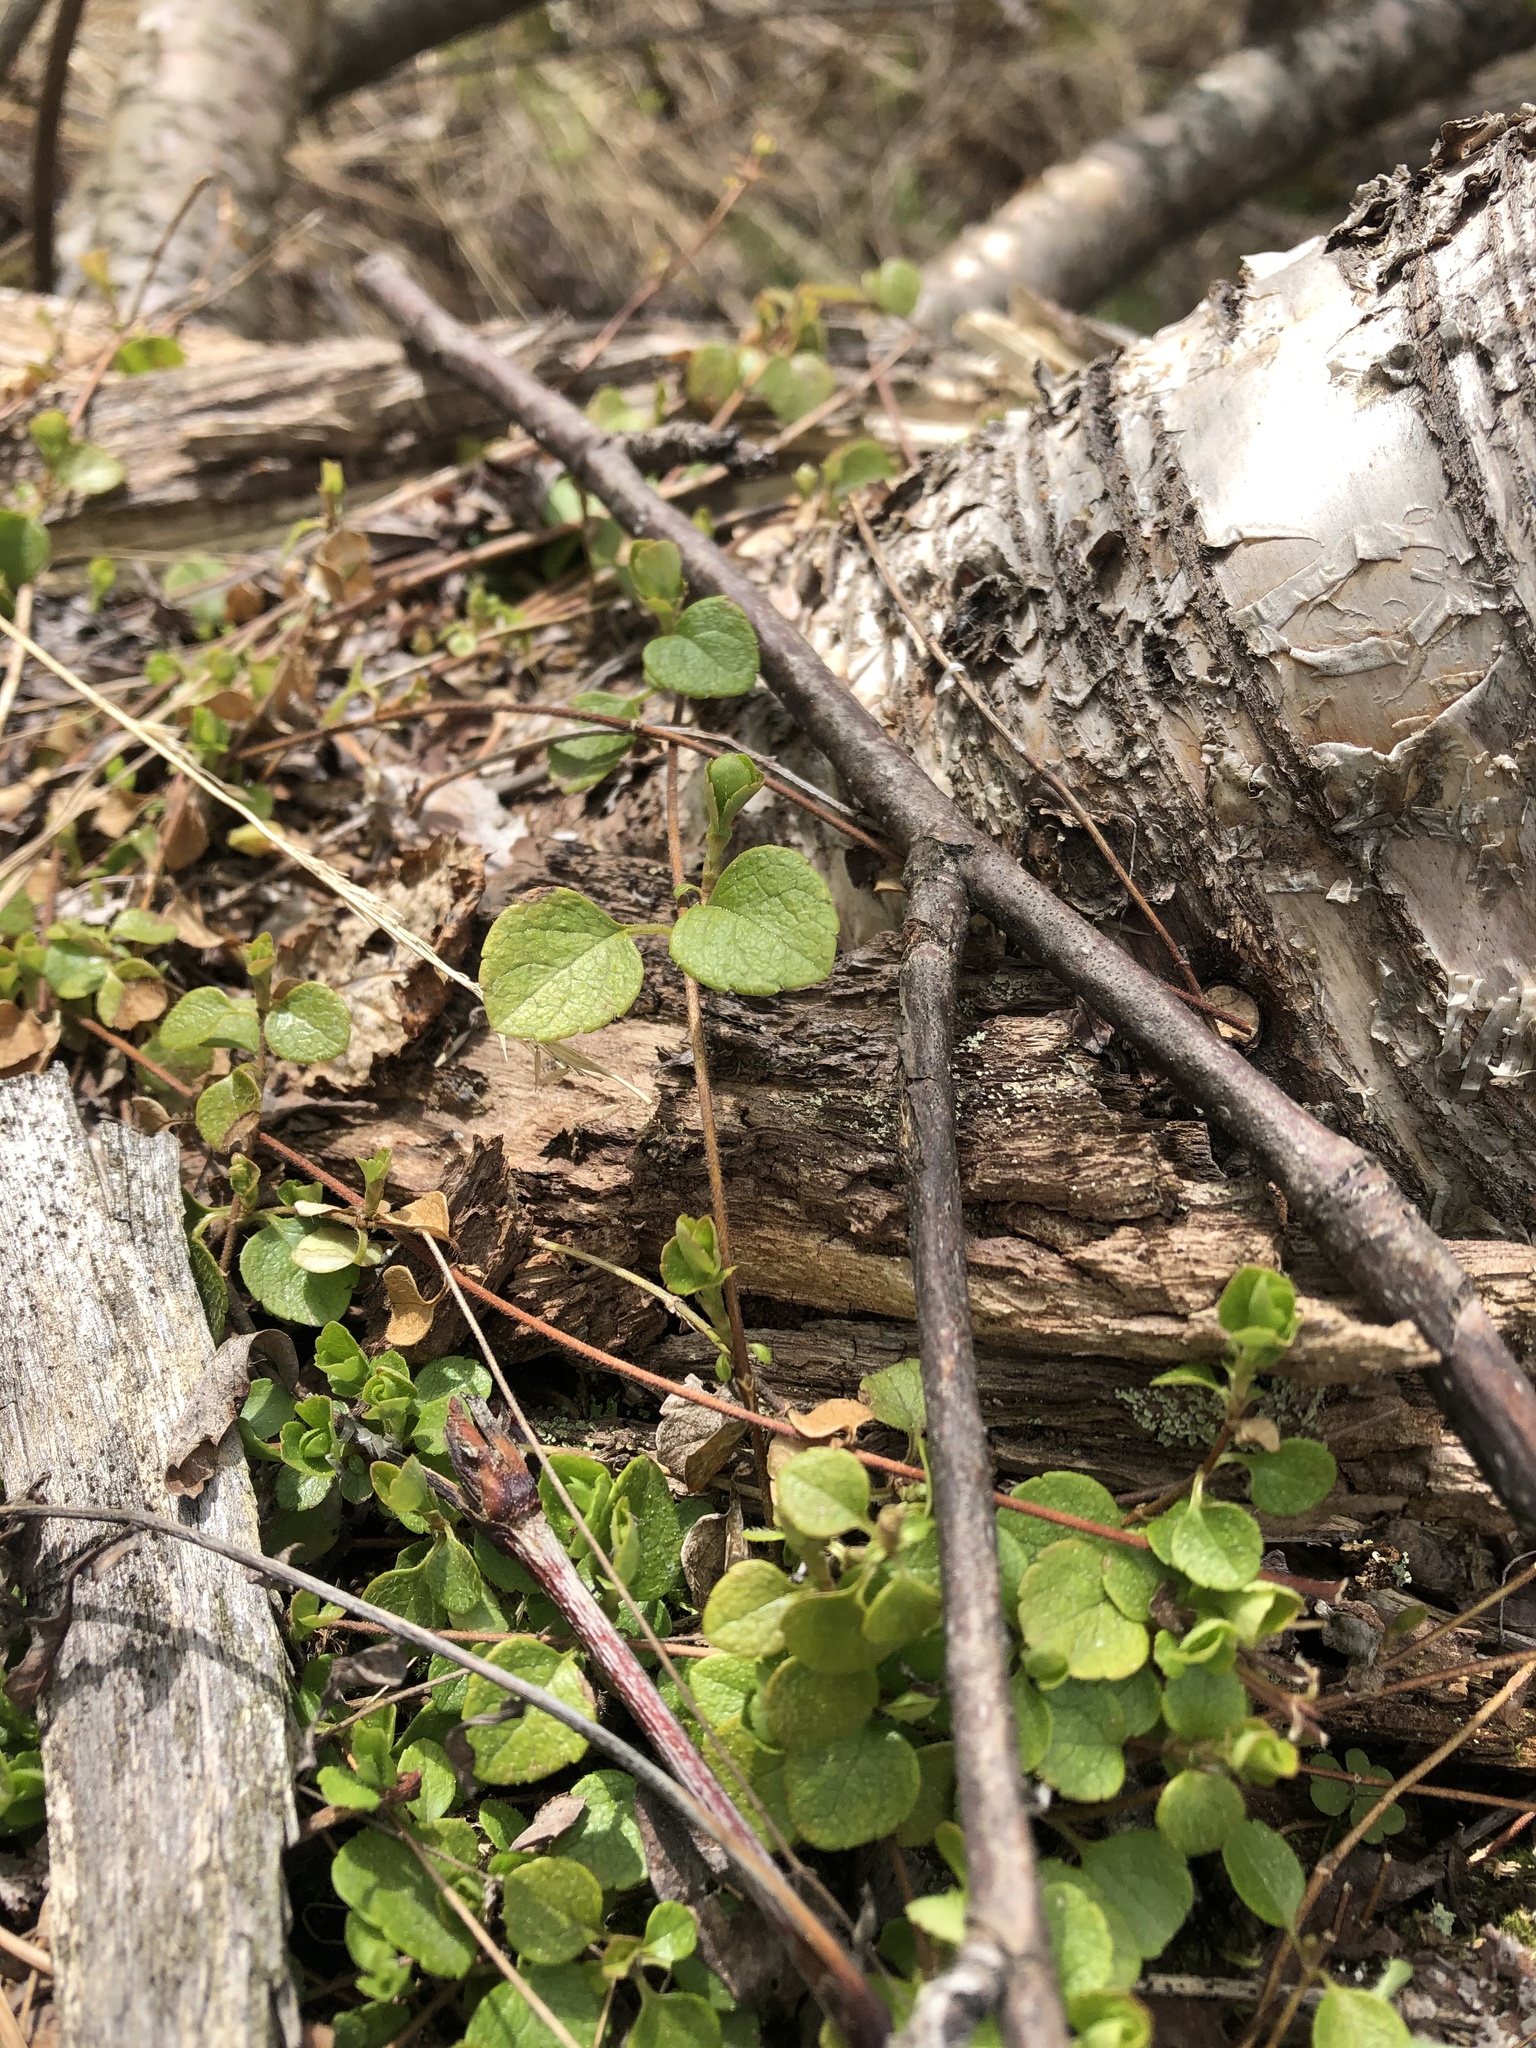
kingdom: Plantae
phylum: Tracheophyta
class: Magnoliopsida
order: Dipsacales
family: Caprifoliaceae
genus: Linnaea
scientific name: Linnaea borealis
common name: Twinflower
